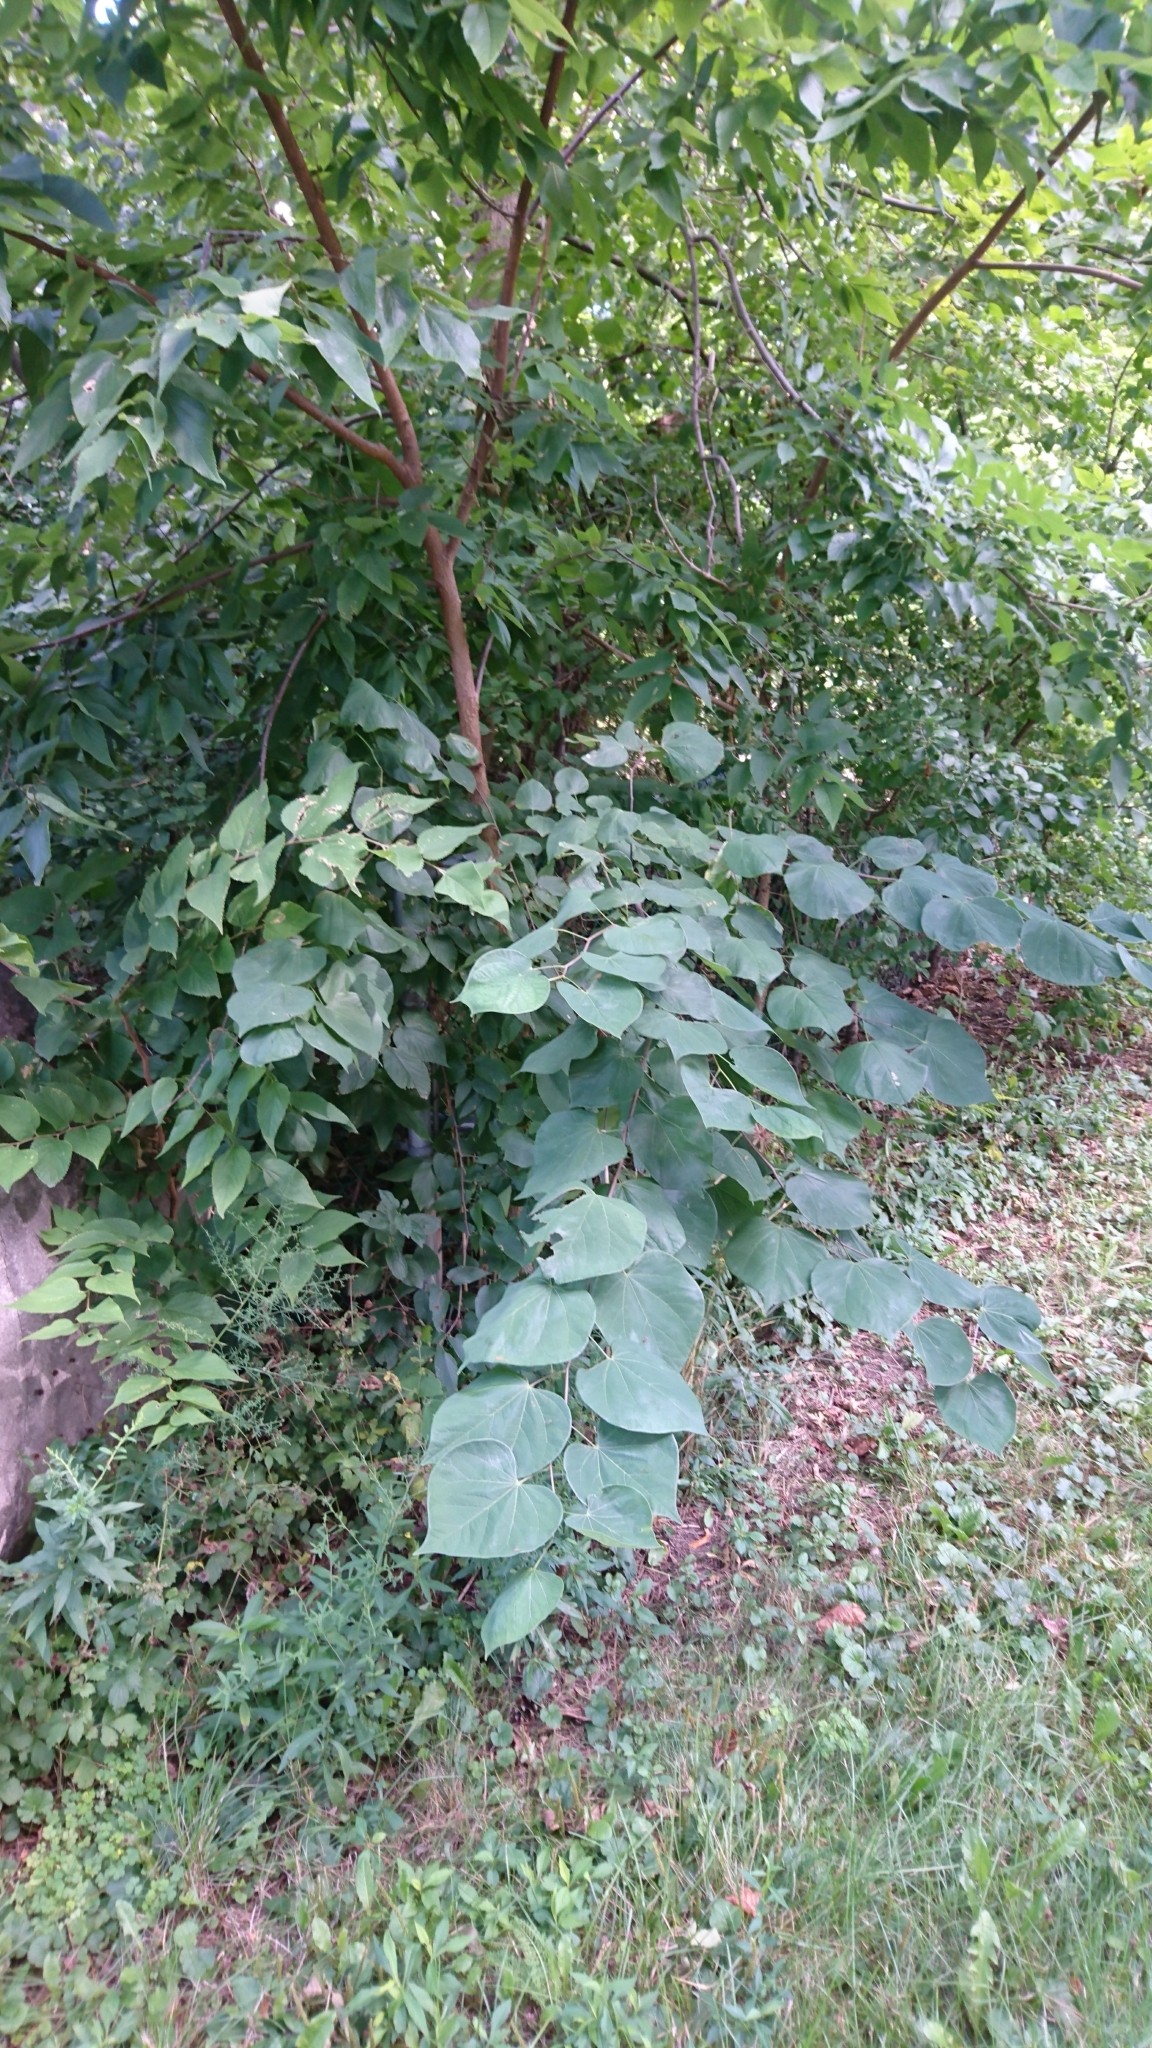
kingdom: Plantae
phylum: Tracheophyta
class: Magnoliopsida
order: Fabales
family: Fabaceae
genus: Cercis
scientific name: Cercis canadensis
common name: Eastern redbud
